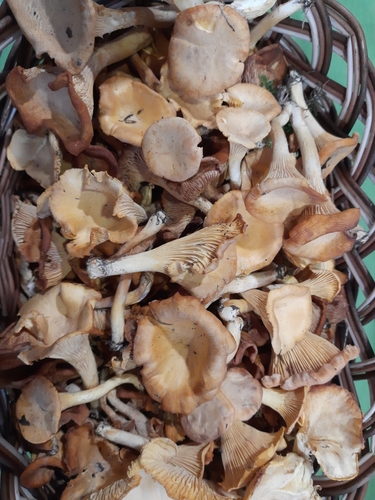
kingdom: Fungi
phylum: Basidiomycota
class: Agaricomycetes
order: Cantharellales
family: Hydnaceae
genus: Cantharellus
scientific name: Cantharellus cibarius
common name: Chanterelle
